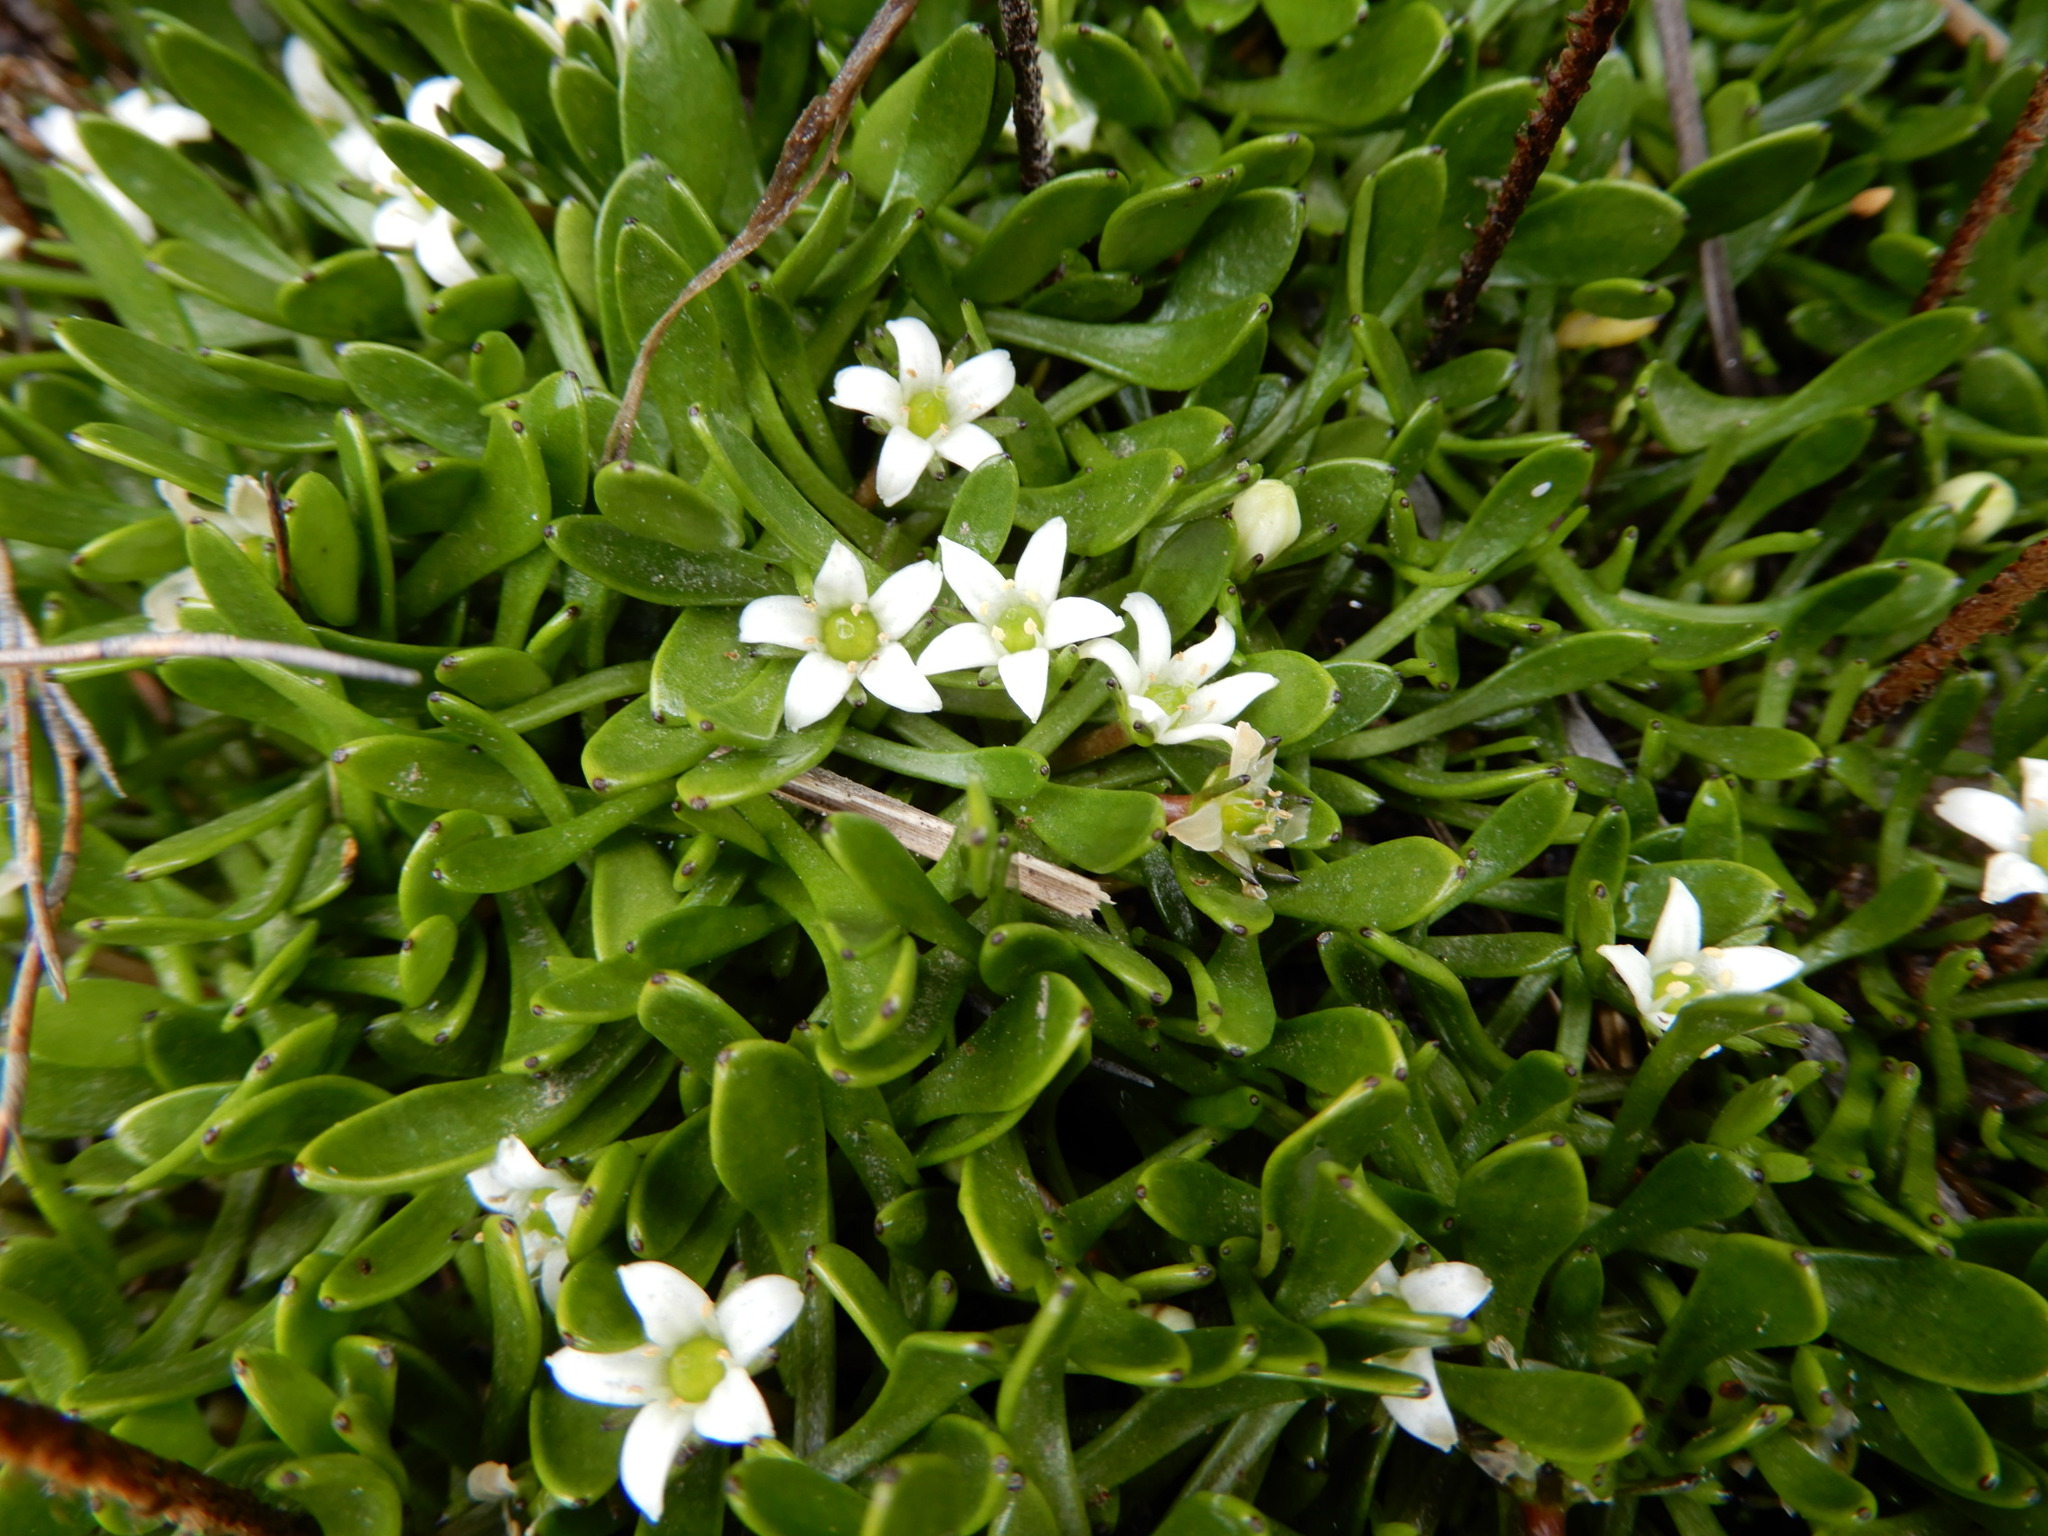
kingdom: Plantae
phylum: Tracheophyta
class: Magnoliopsida
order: Asterales
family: Menyanthaceae
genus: Liparophyllum
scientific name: Liparophyllum gunnii
